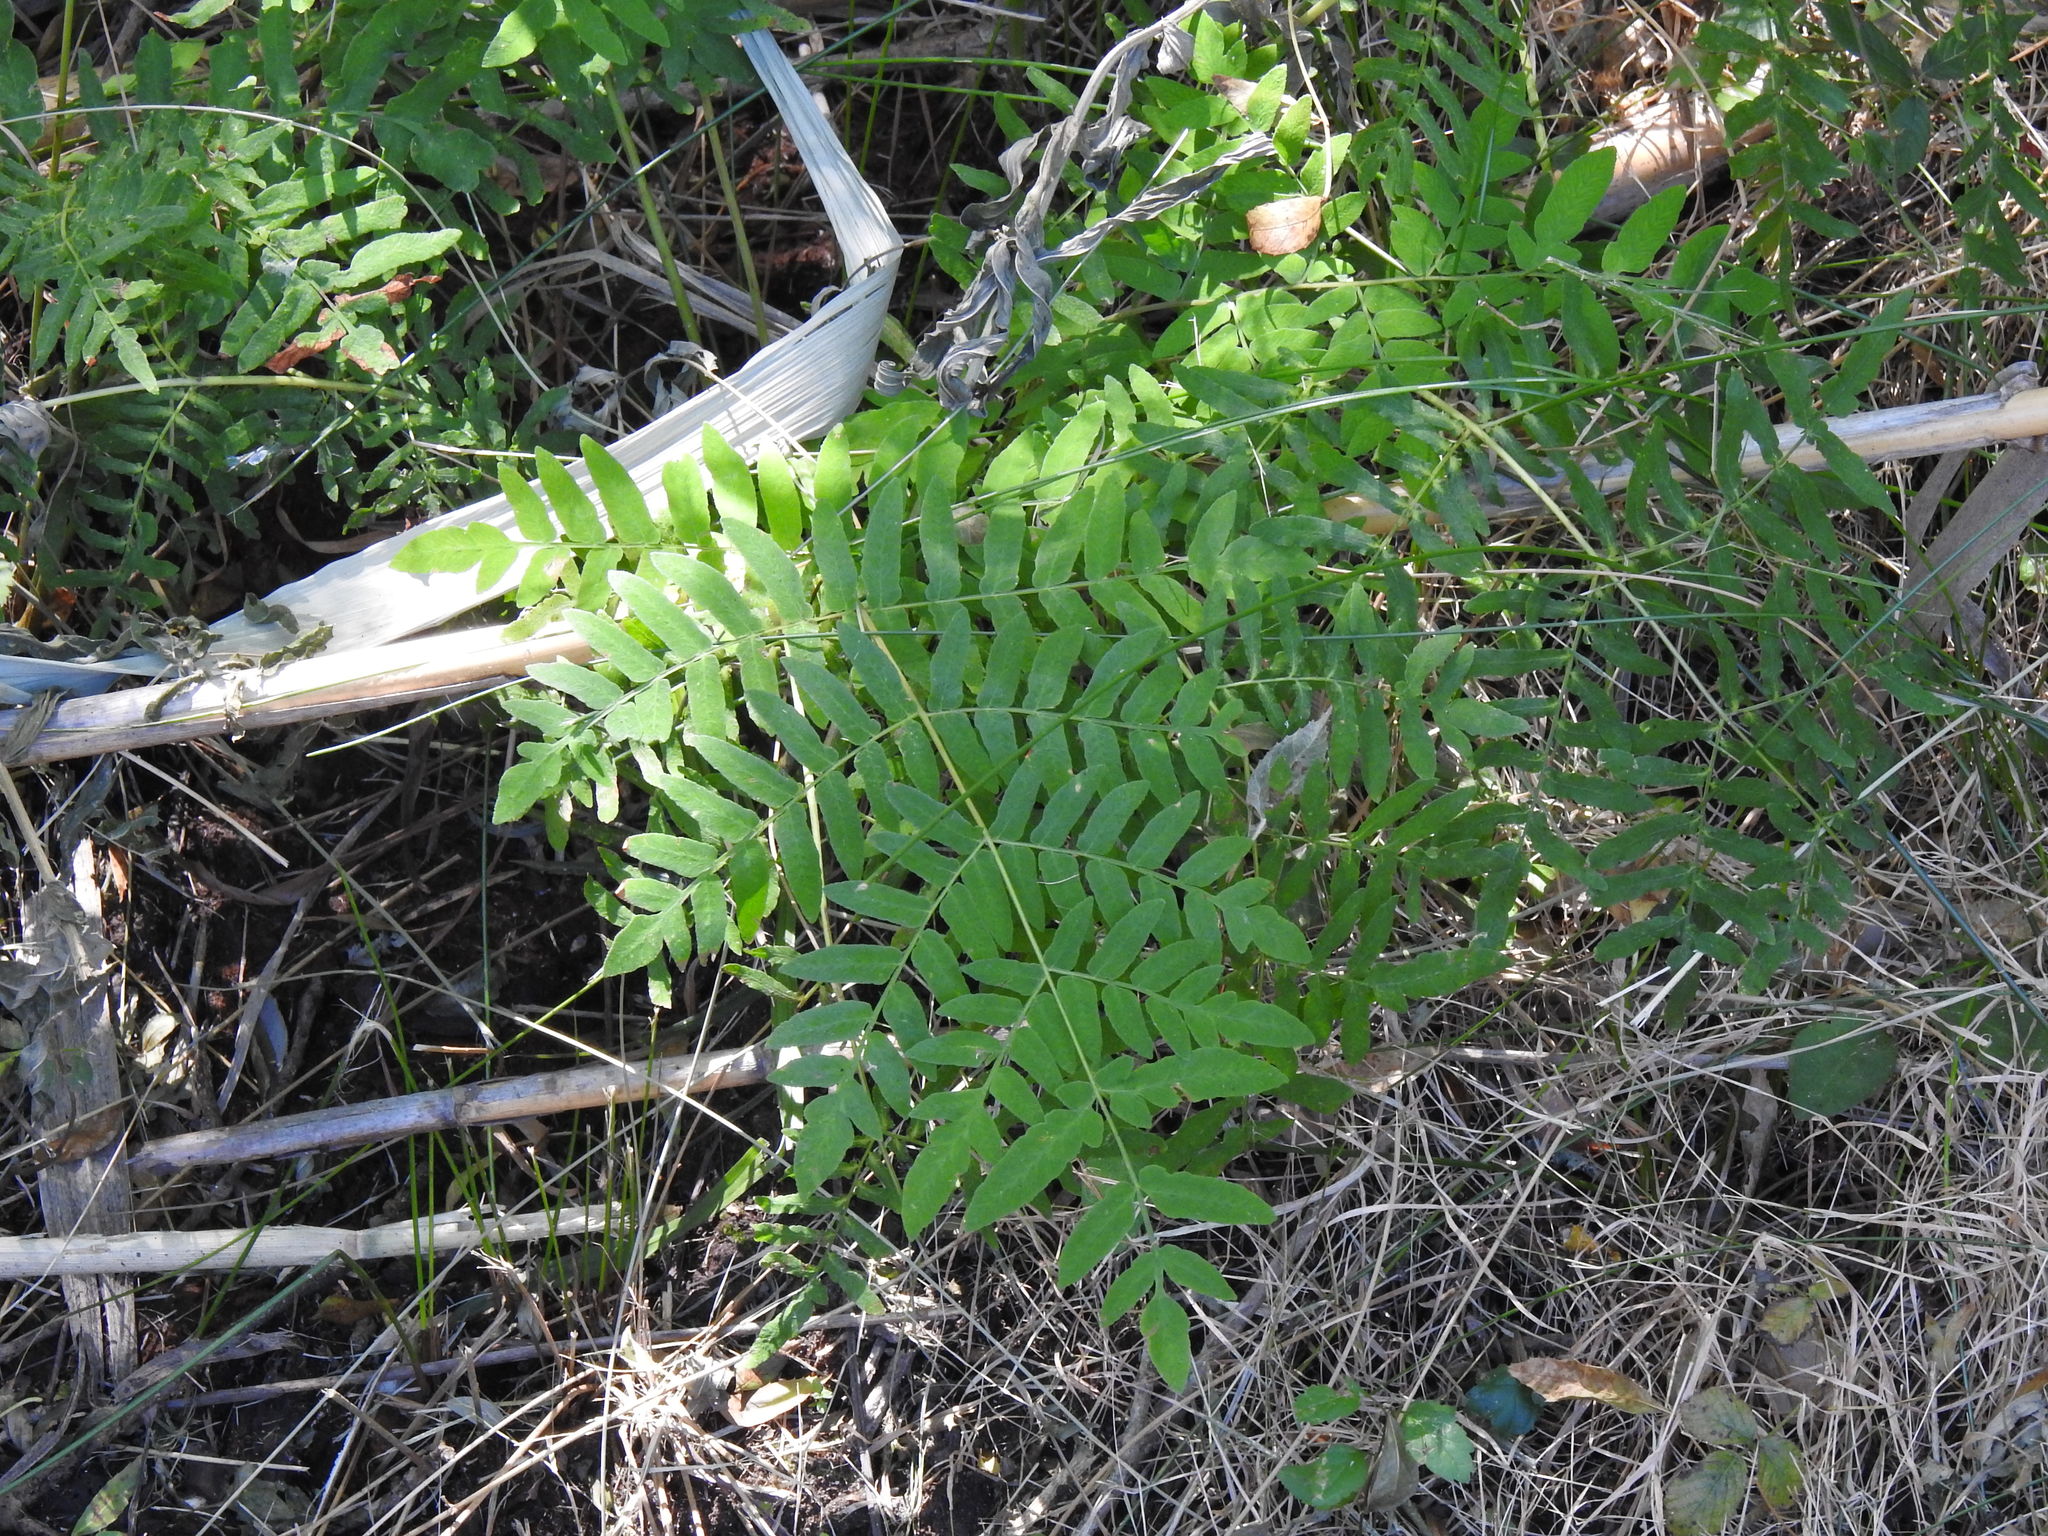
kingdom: Plantae
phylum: Tracheophyta
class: Polypodiopsida
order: Osmundales
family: Osmundaceae
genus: Osmunda
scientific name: Osmunda regalis
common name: Royal fern
